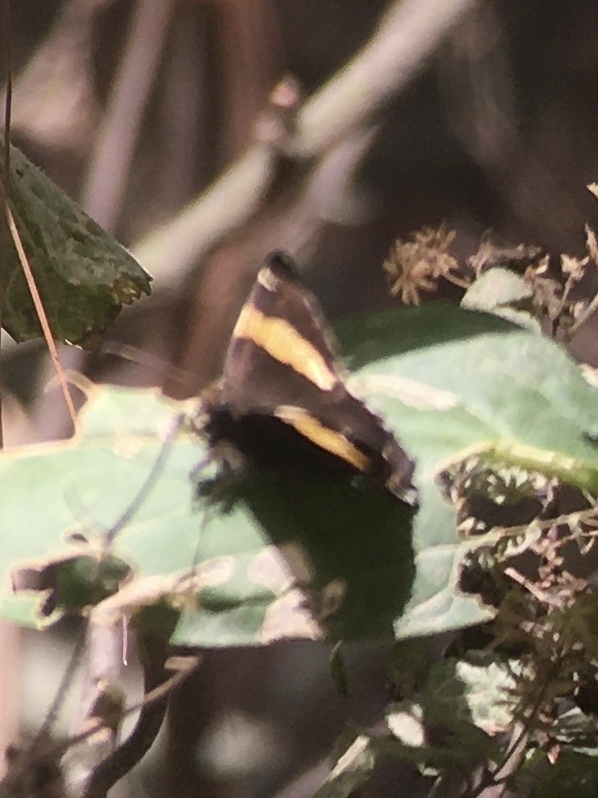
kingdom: Animalia
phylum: Arthropoda
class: Arachnida
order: Scorpiones
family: Bothriuridae
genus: Telegonus
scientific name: Telegonus cellus
